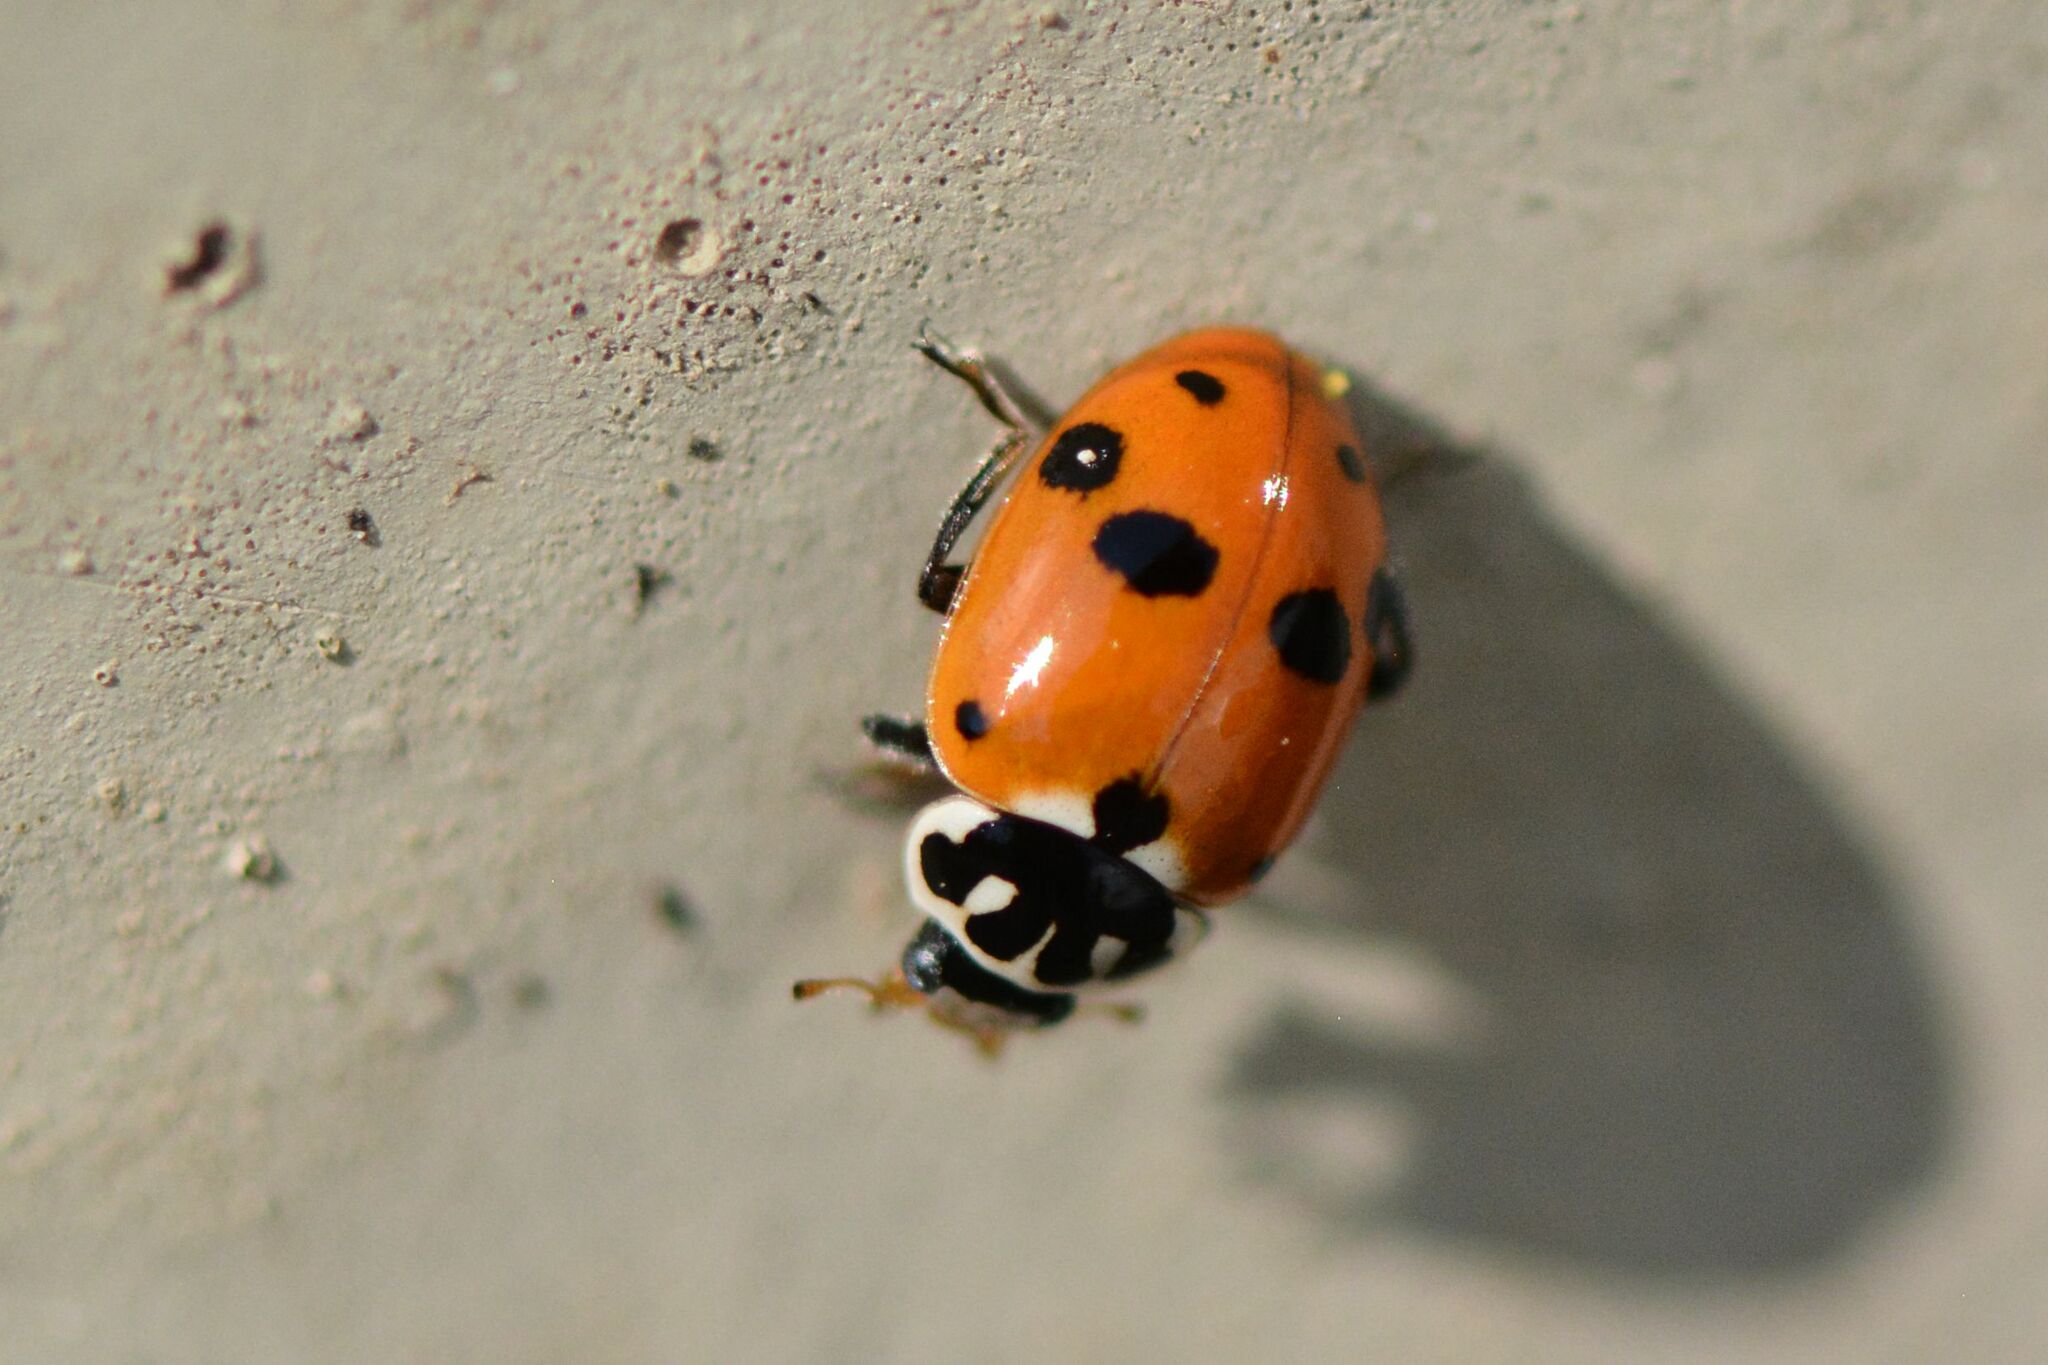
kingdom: Animalia
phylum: Arthropoda
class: Insecta
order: Coleoptera
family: Coccinellidae
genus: Hippodamia
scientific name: Hippodamia variegata
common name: Ladybird beetle
